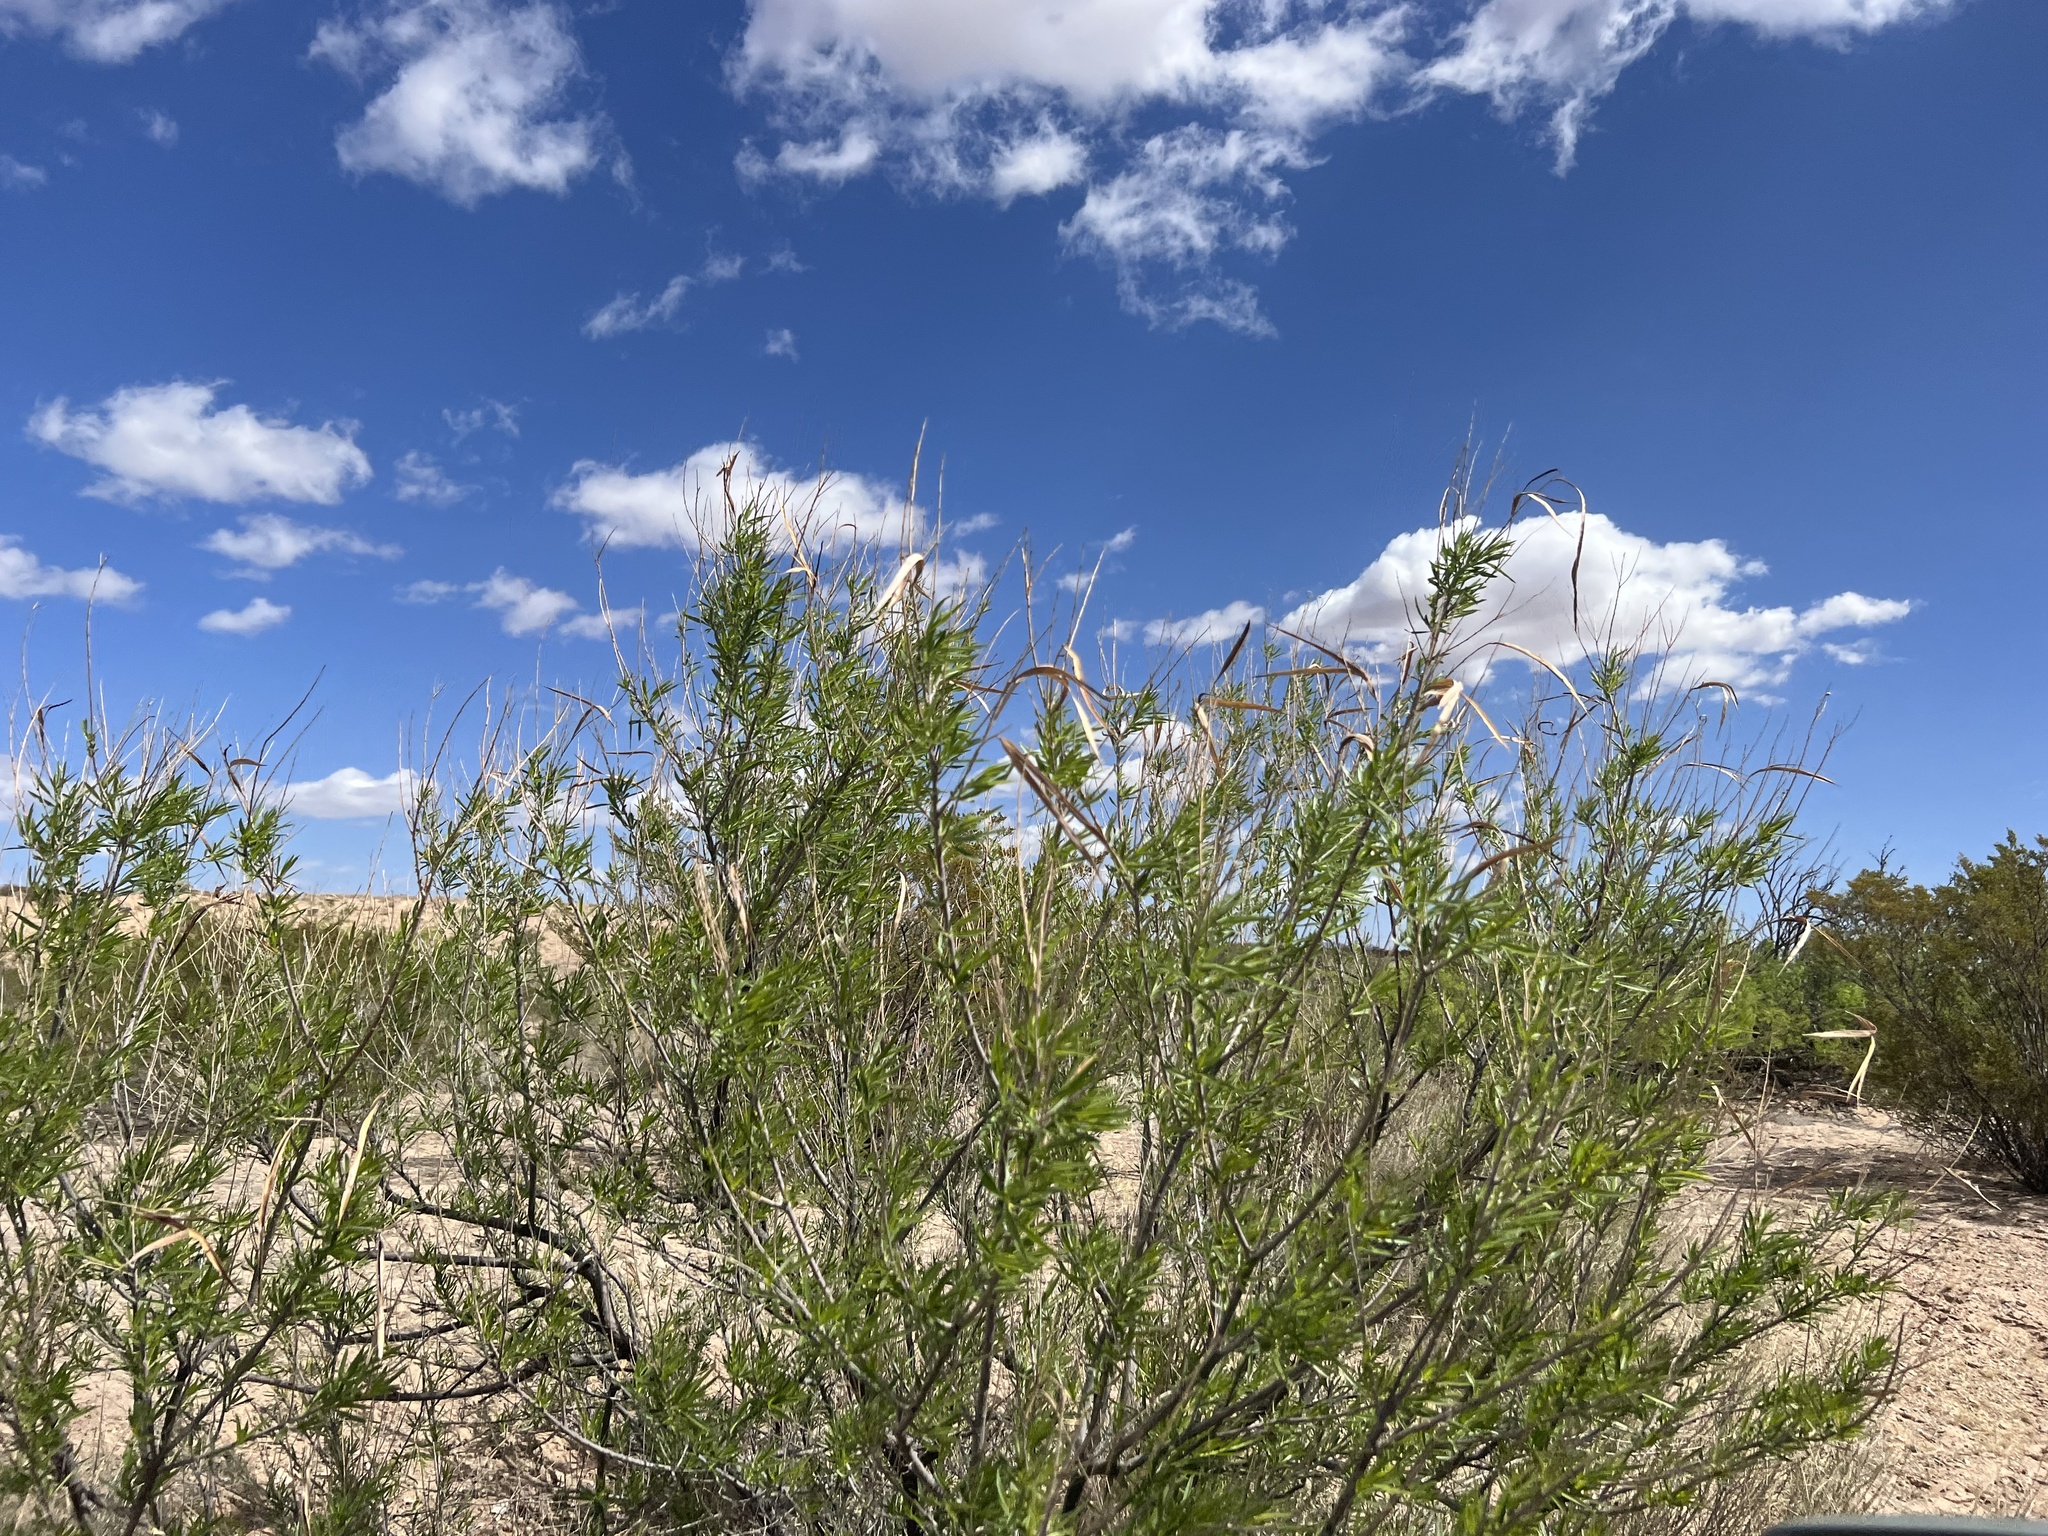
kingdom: Plantae
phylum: Tracheophyta
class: Magnoliopsida
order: Lamiales
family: Bignoniaceae
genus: Chilopsis
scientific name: Chilopsis linearis
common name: Desert-willow
